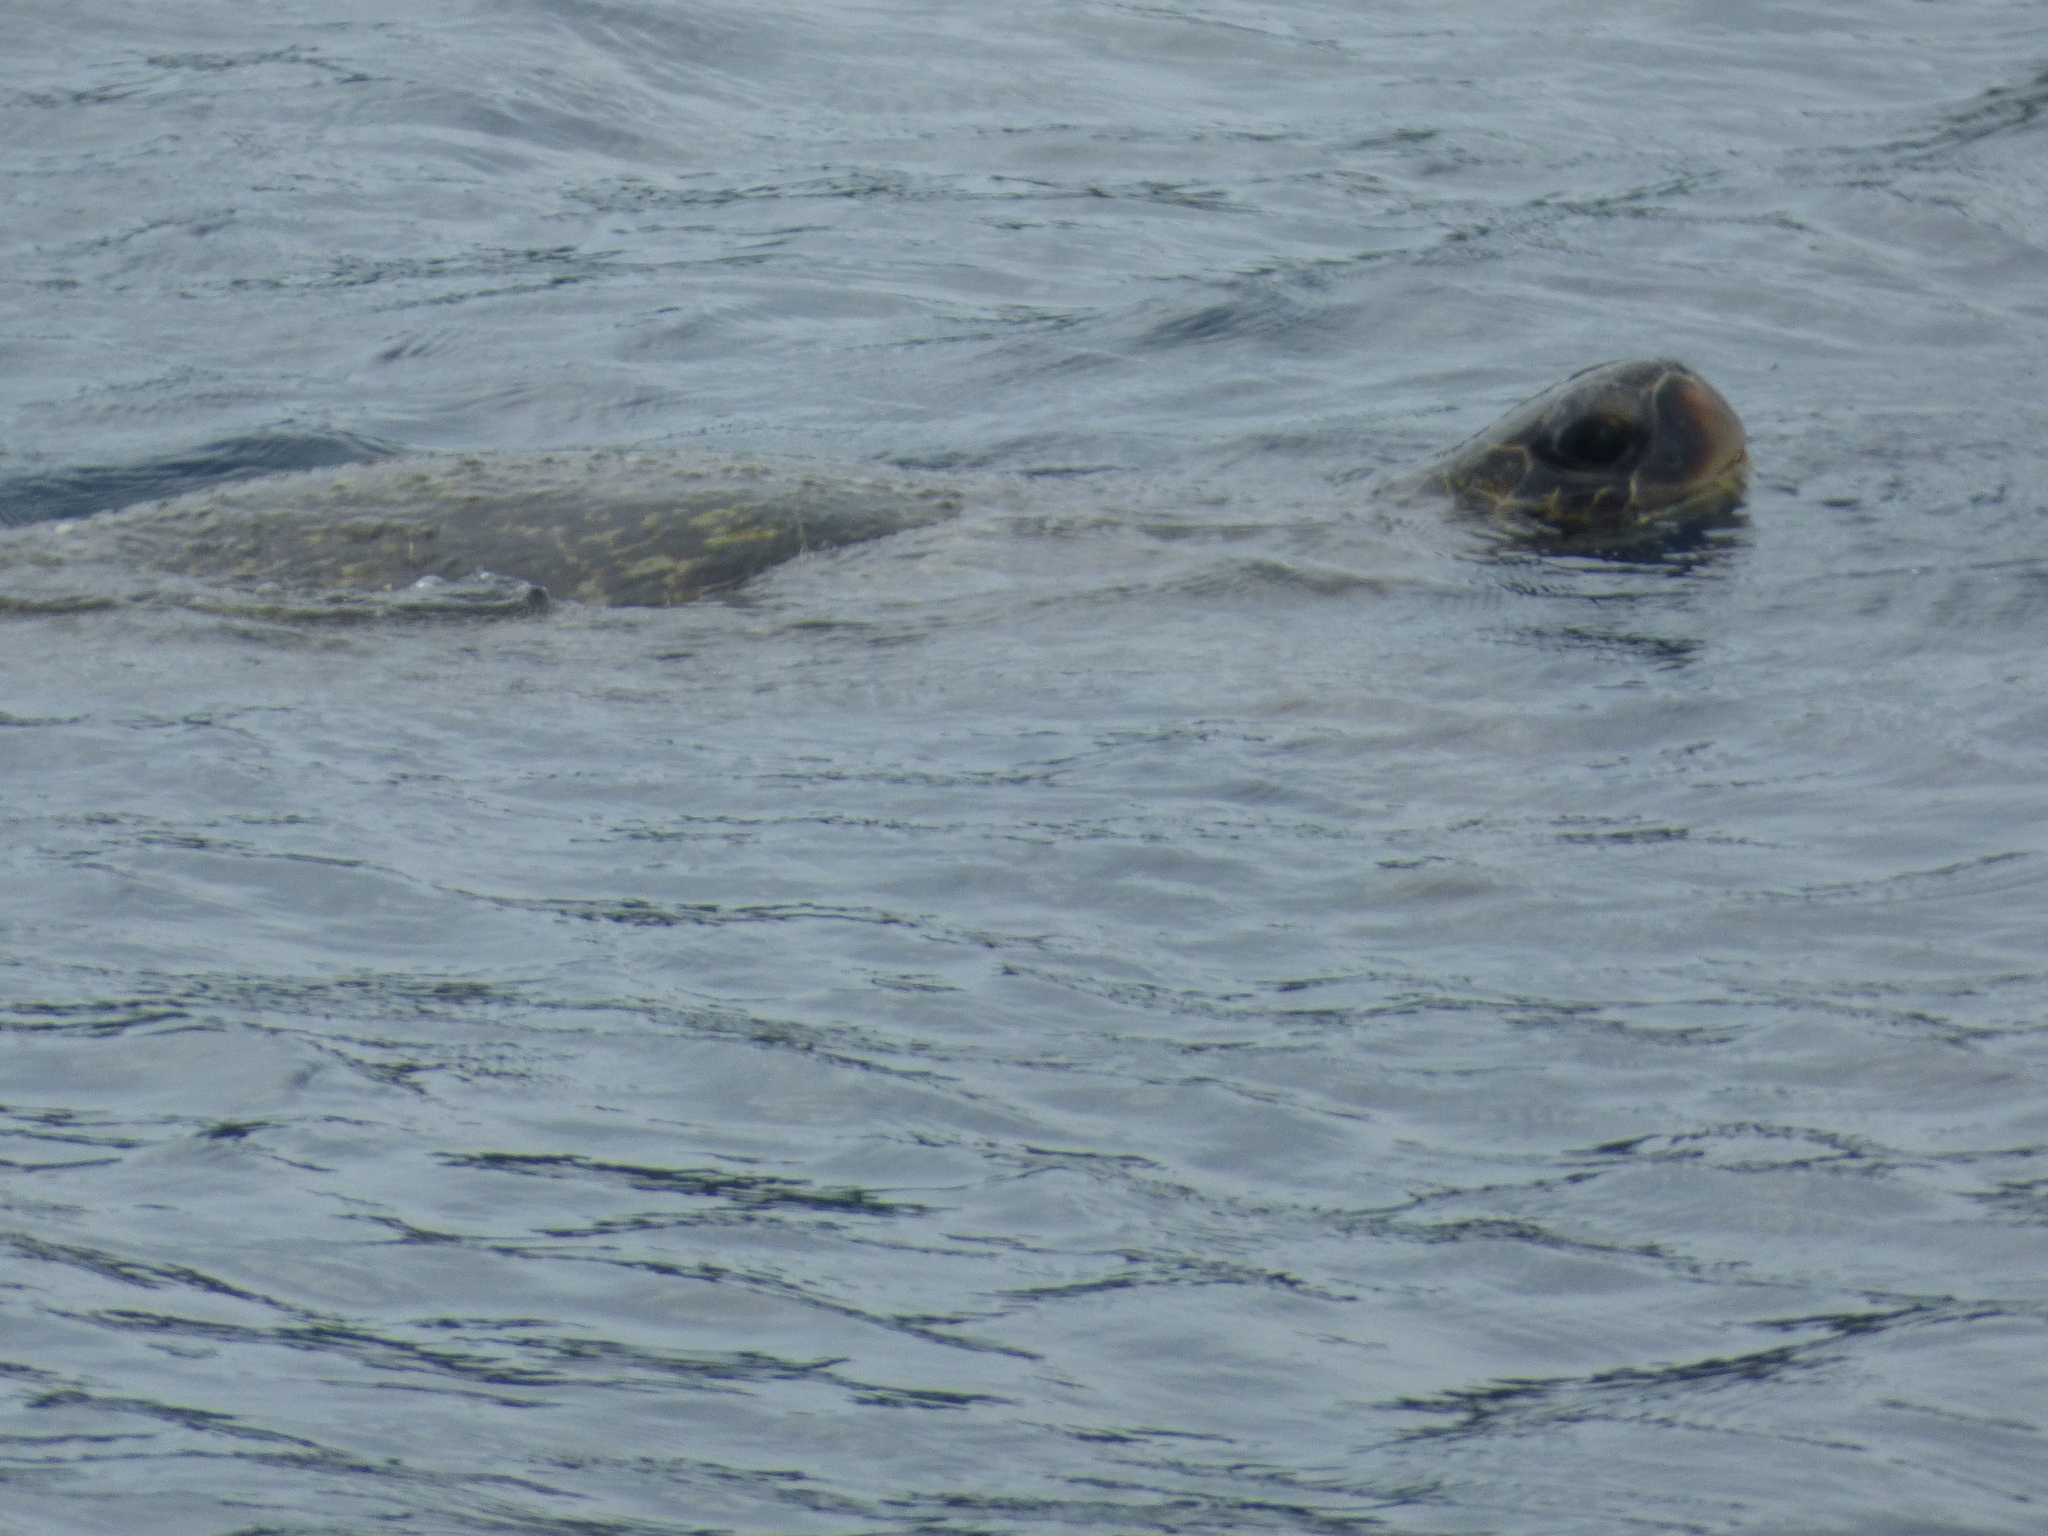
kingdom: Animalia
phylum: Chordata
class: Testudines
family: Cheloniidae
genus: Chelonia
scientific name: Chelonia mydas
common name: Green turtle
